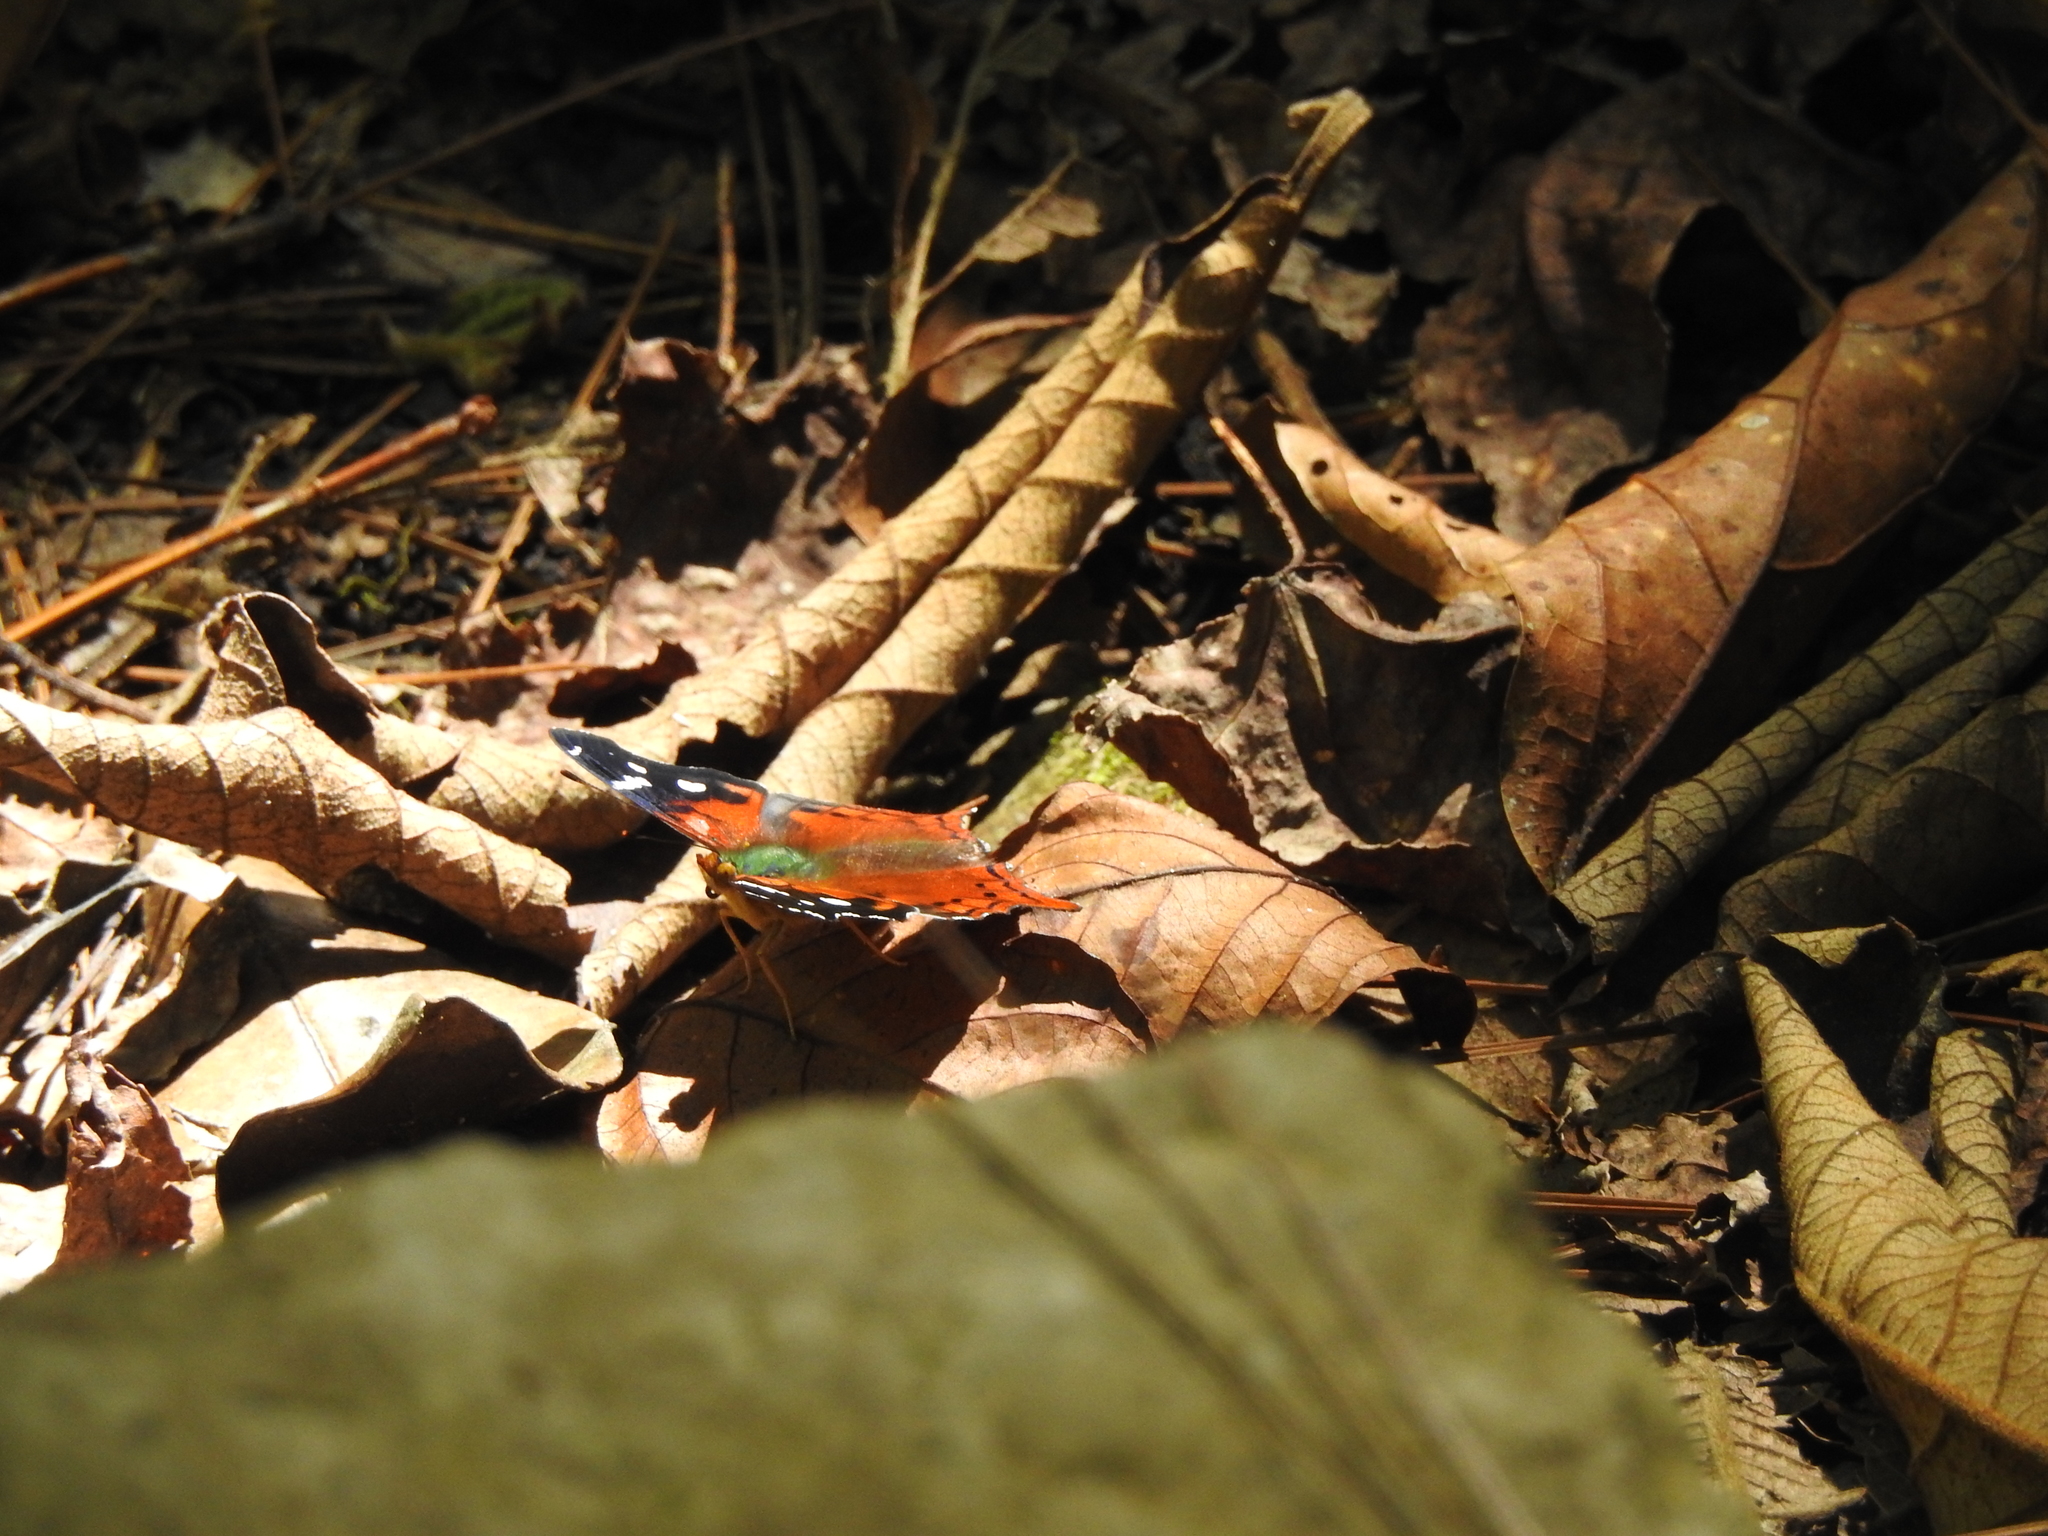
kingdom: Animalia
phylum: Arthropoda
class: Insecta
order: Lepidoptera
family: Nymphalidae
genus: Hypanartia
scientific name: Hypanartia trimaculata
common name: Reddish mapwing
